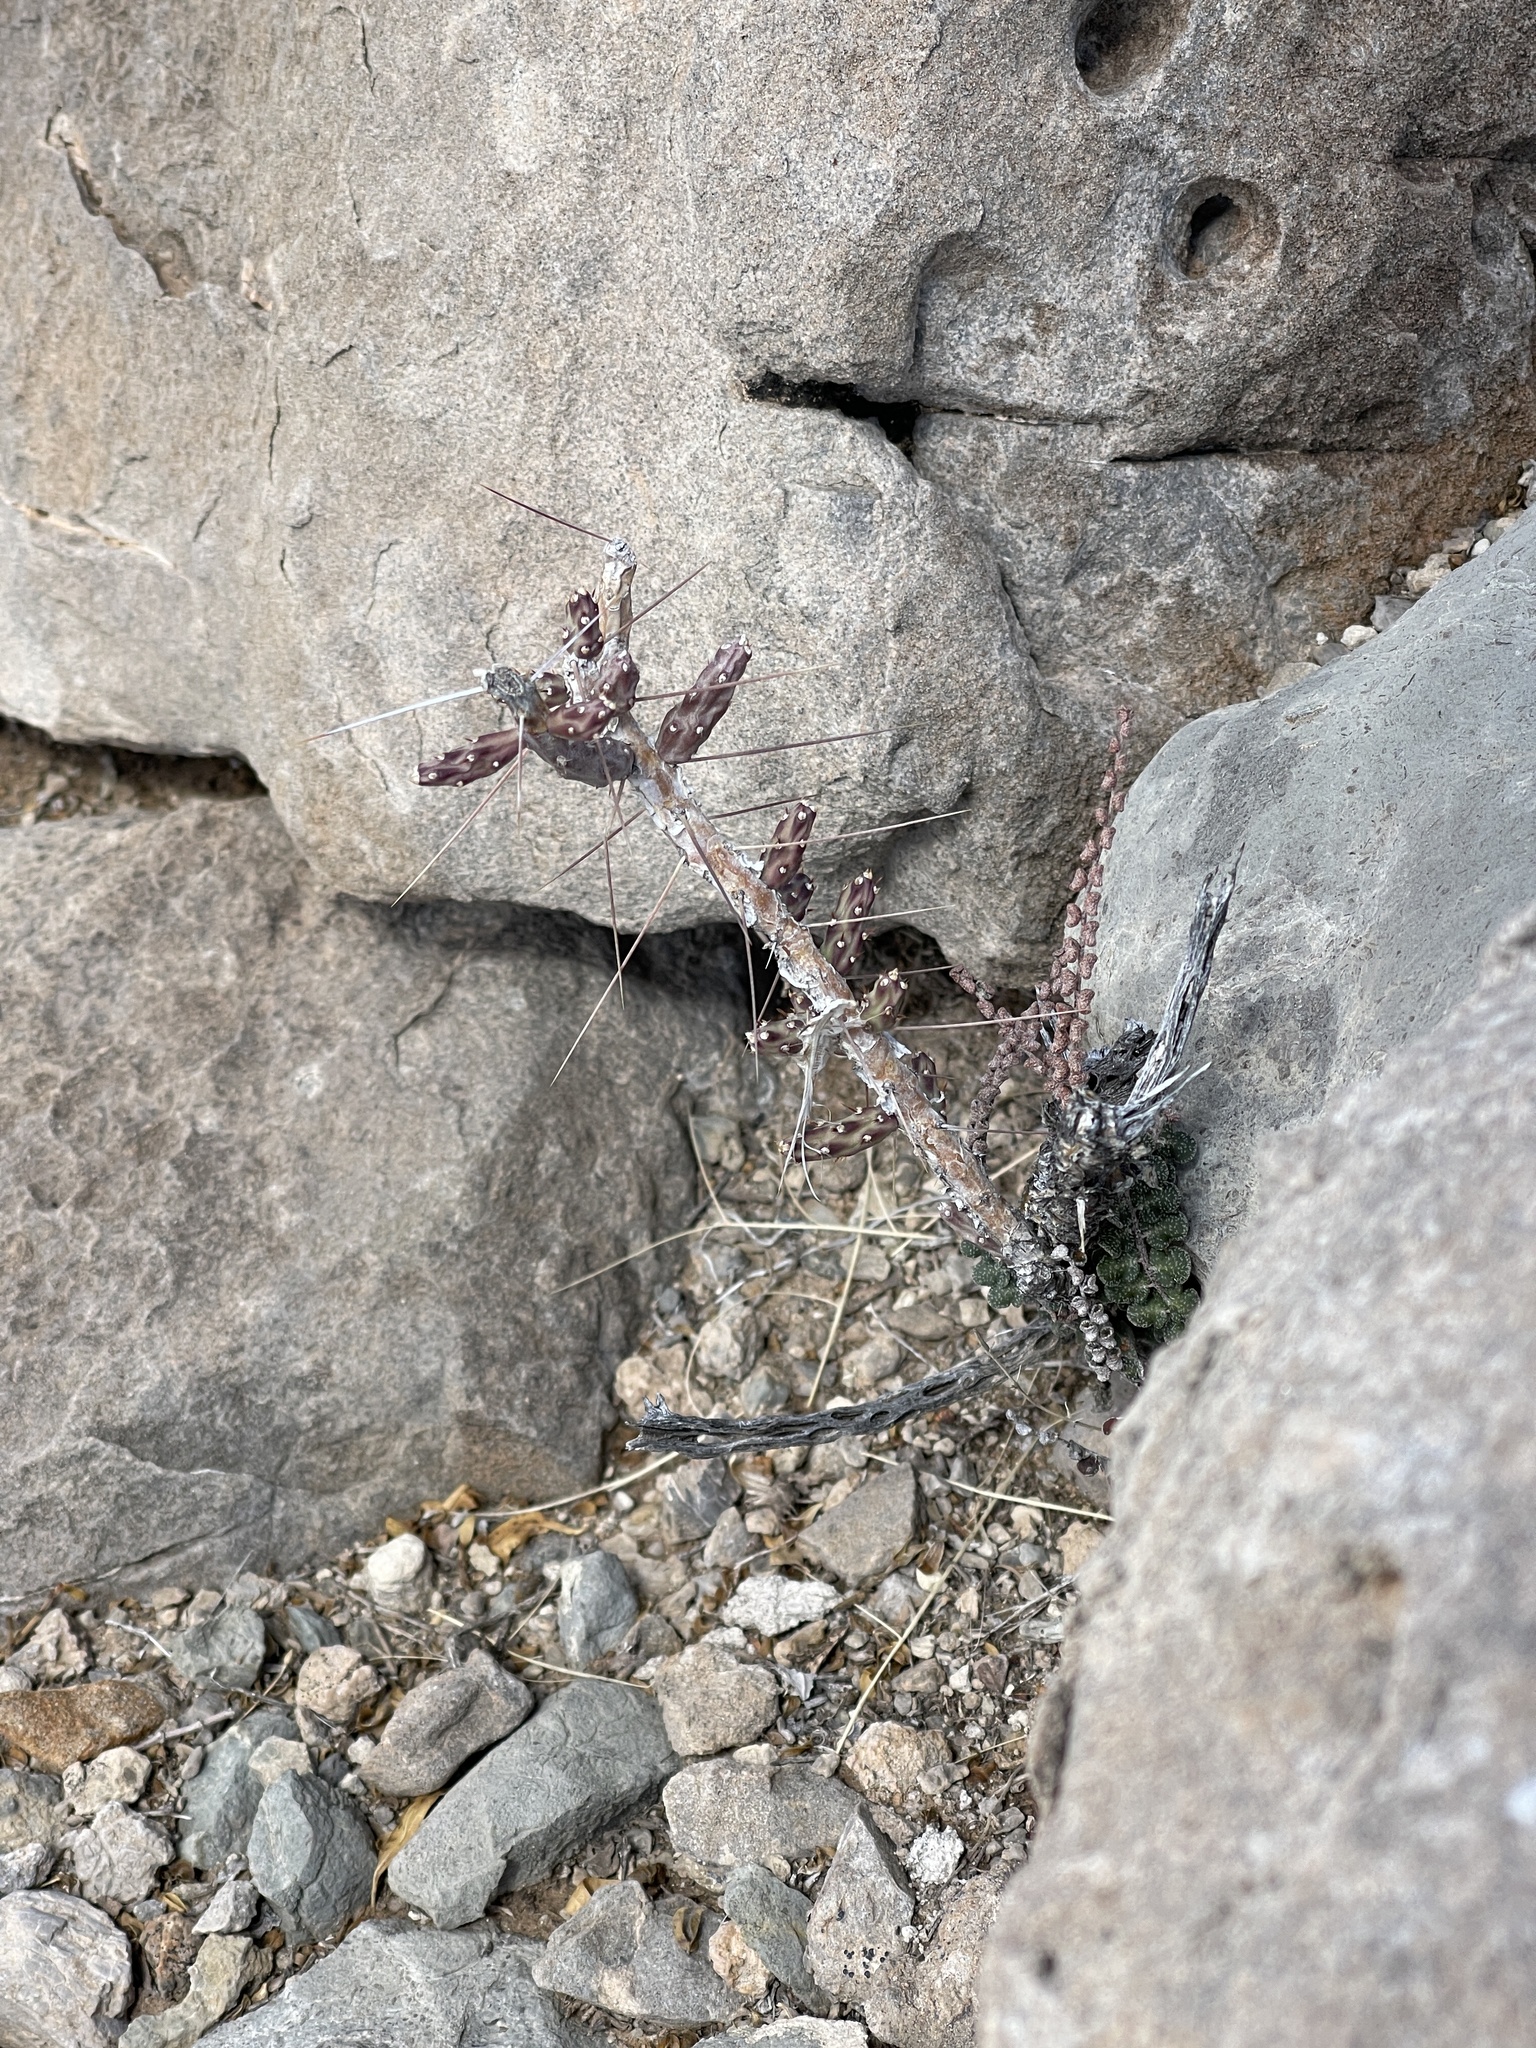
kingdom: Plantae
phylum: Tracheophyta
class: Magnoliopsida
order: Caryophyllales
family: Cactaceae
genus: Cylindropuntia
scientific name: Cylindropuntia leptocaulis
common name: Christmas cactus
